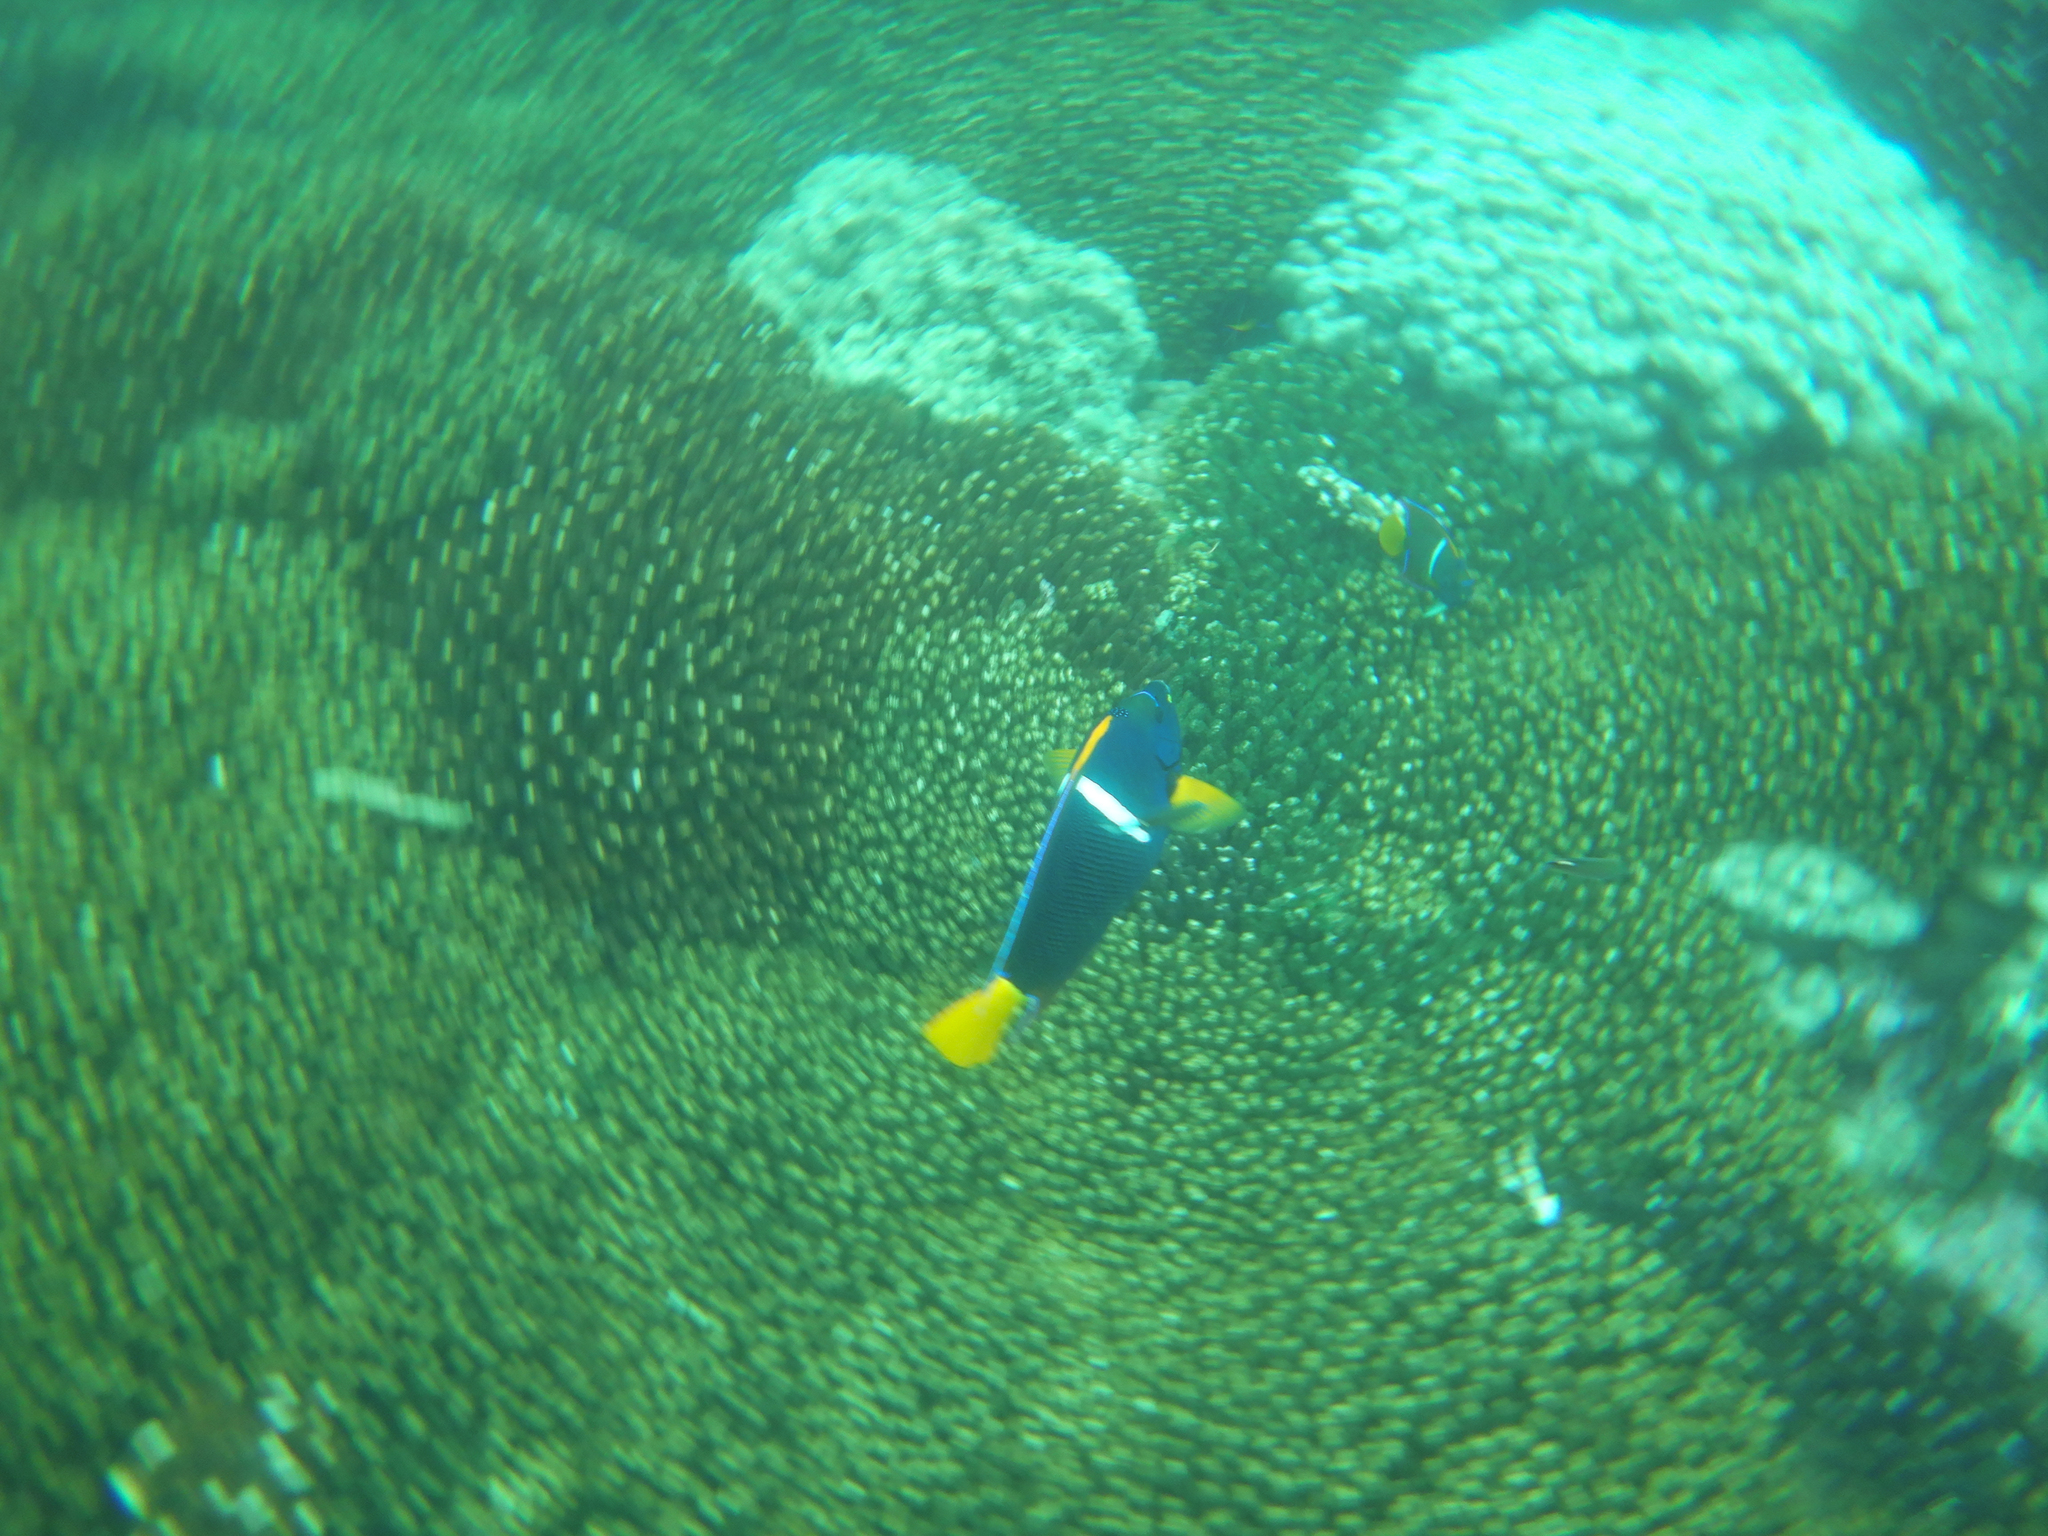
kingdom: Animalia
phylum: Chordata
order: Perciformes
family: Pomacanthidae
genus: Holacanthus
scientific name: Holacanthus passer
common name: King angelfish
